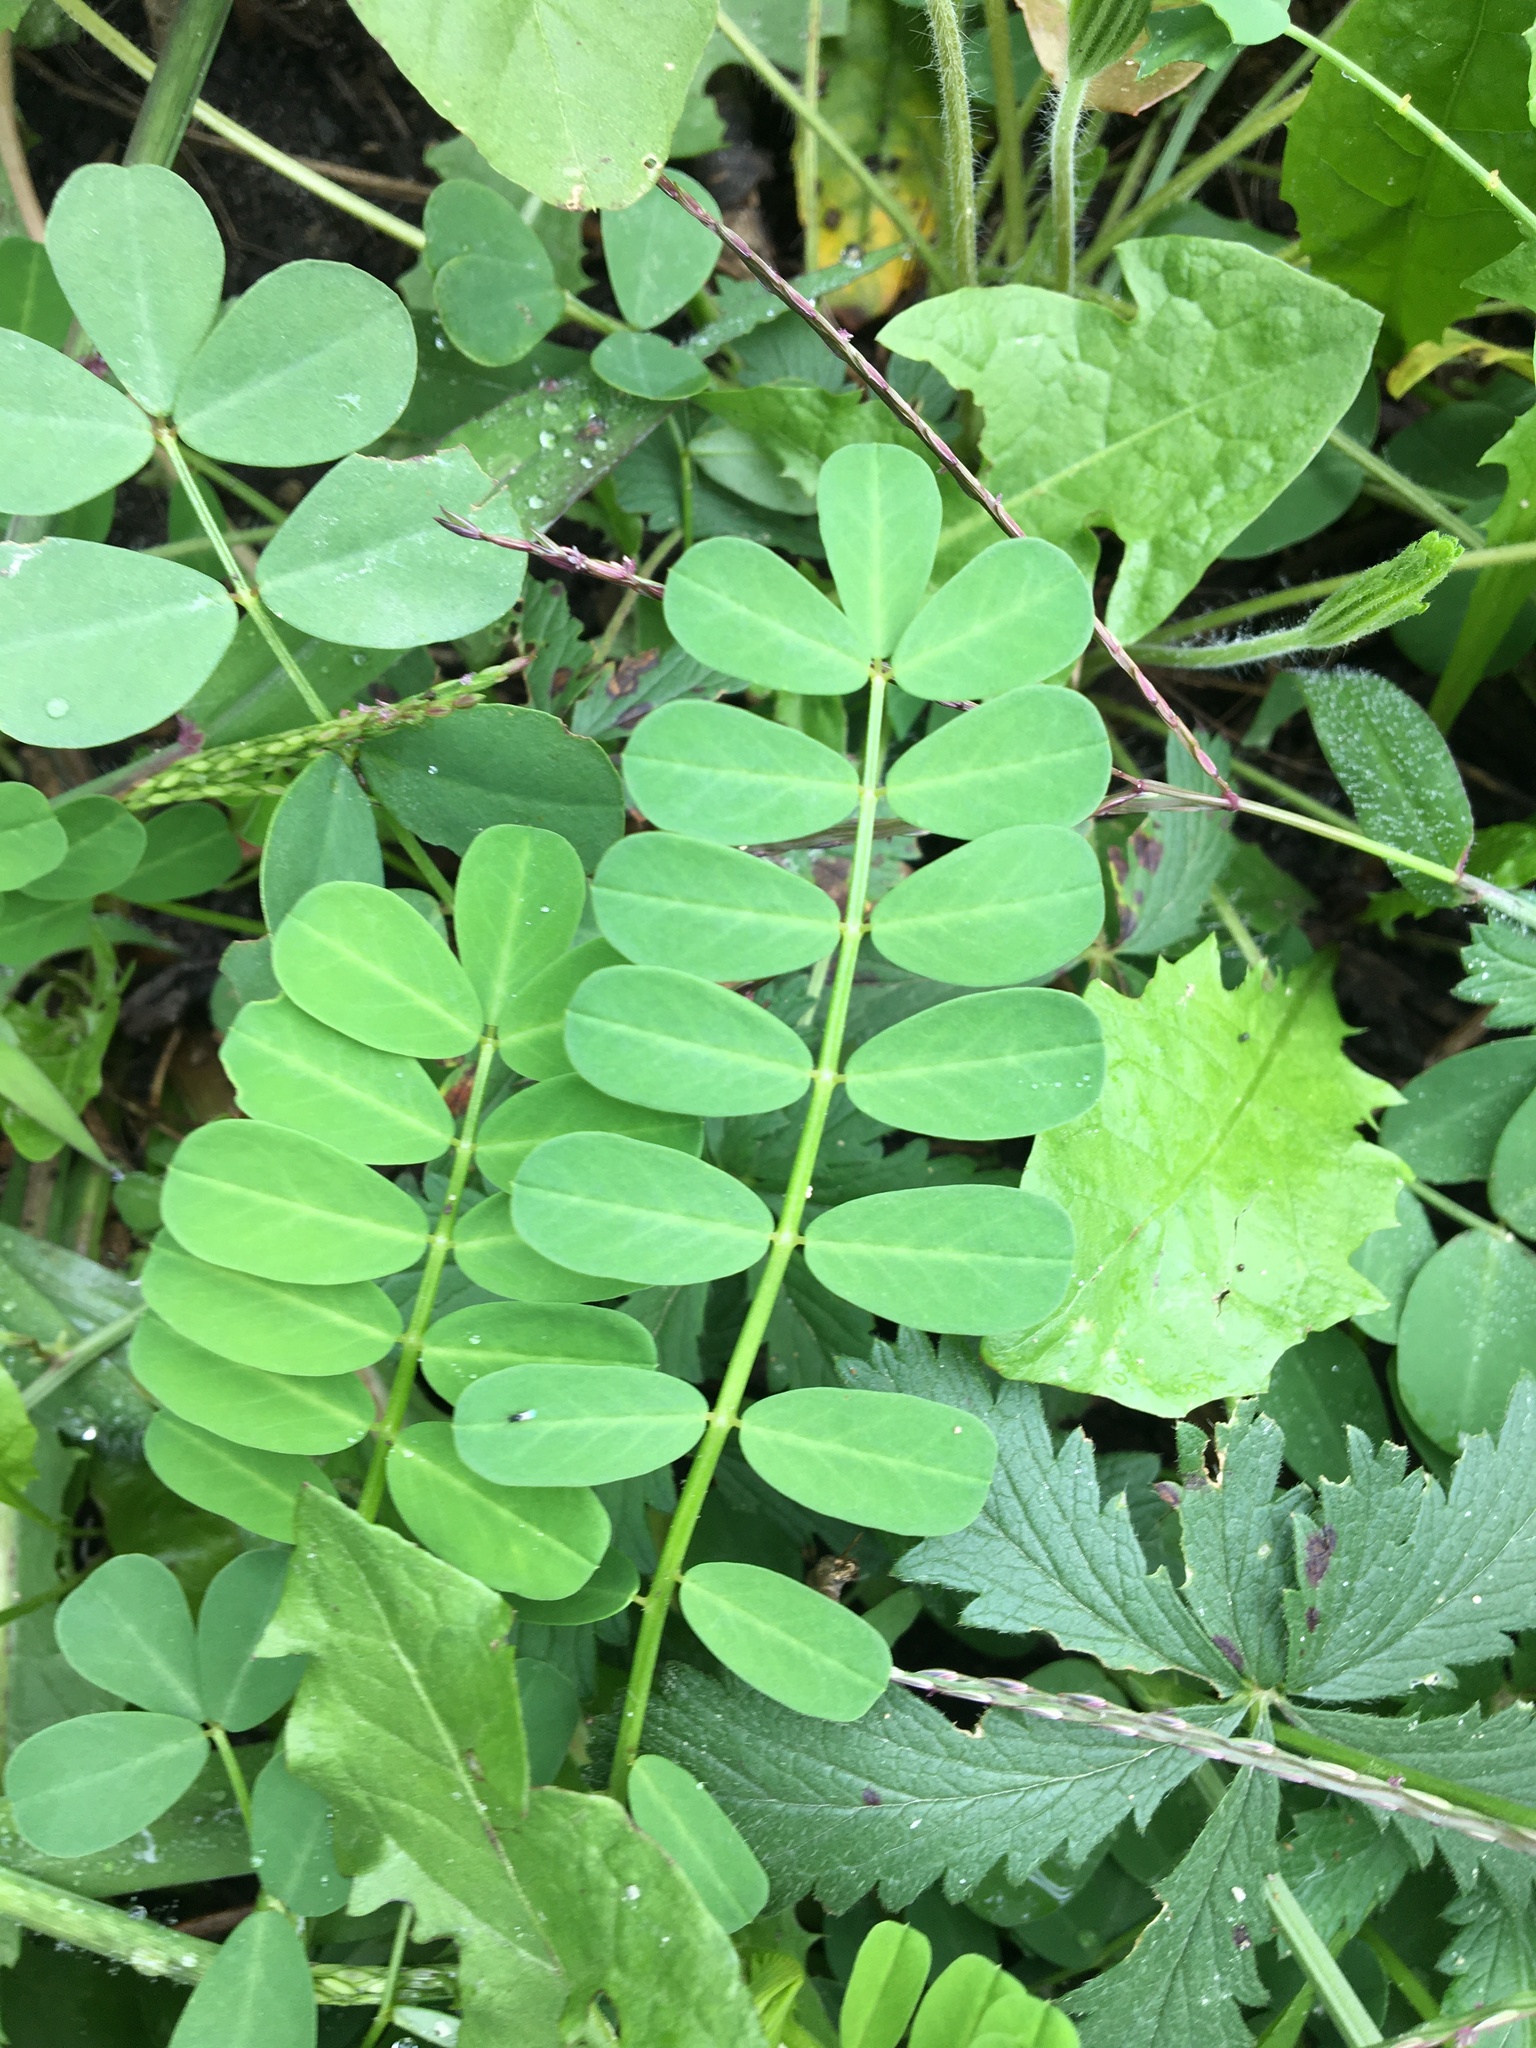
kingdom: Plantae
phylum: Tracheophyta
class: Magnoliopsida
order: Fabales
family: Fabaceae
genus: Coronilla
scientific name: Coronilla varia
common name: Crownvetch
